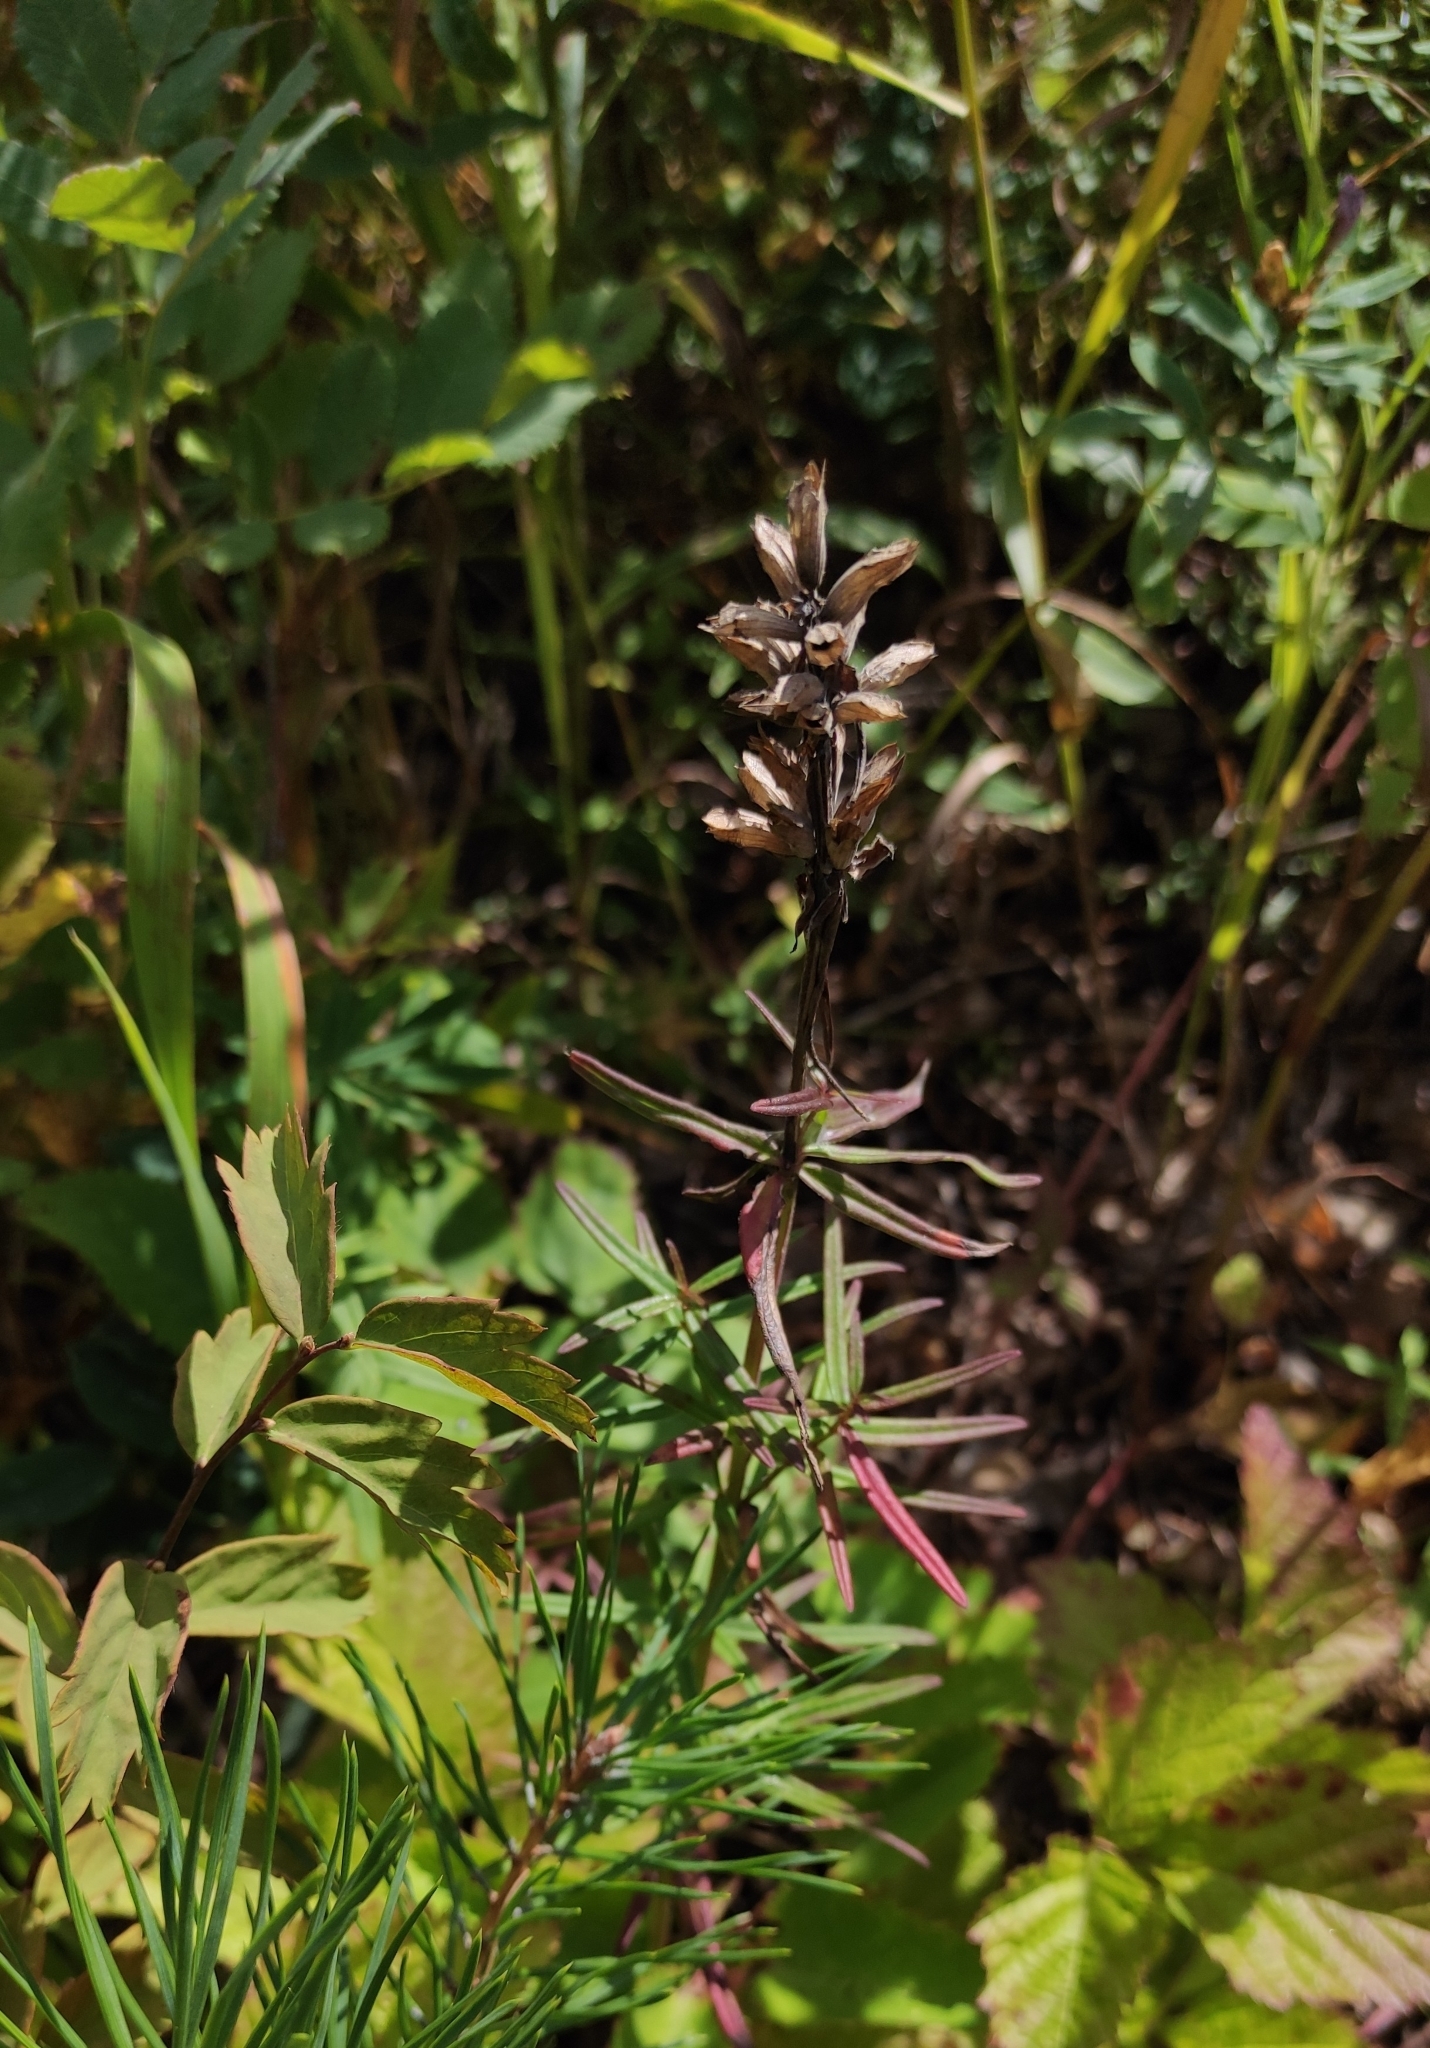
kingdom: Plantae
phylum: Tracheophyta
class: Magnoliopsida
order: Lamiales
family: Lamiaceae
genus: Dracocephalum
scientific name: Dracocephalum ruyschiana
